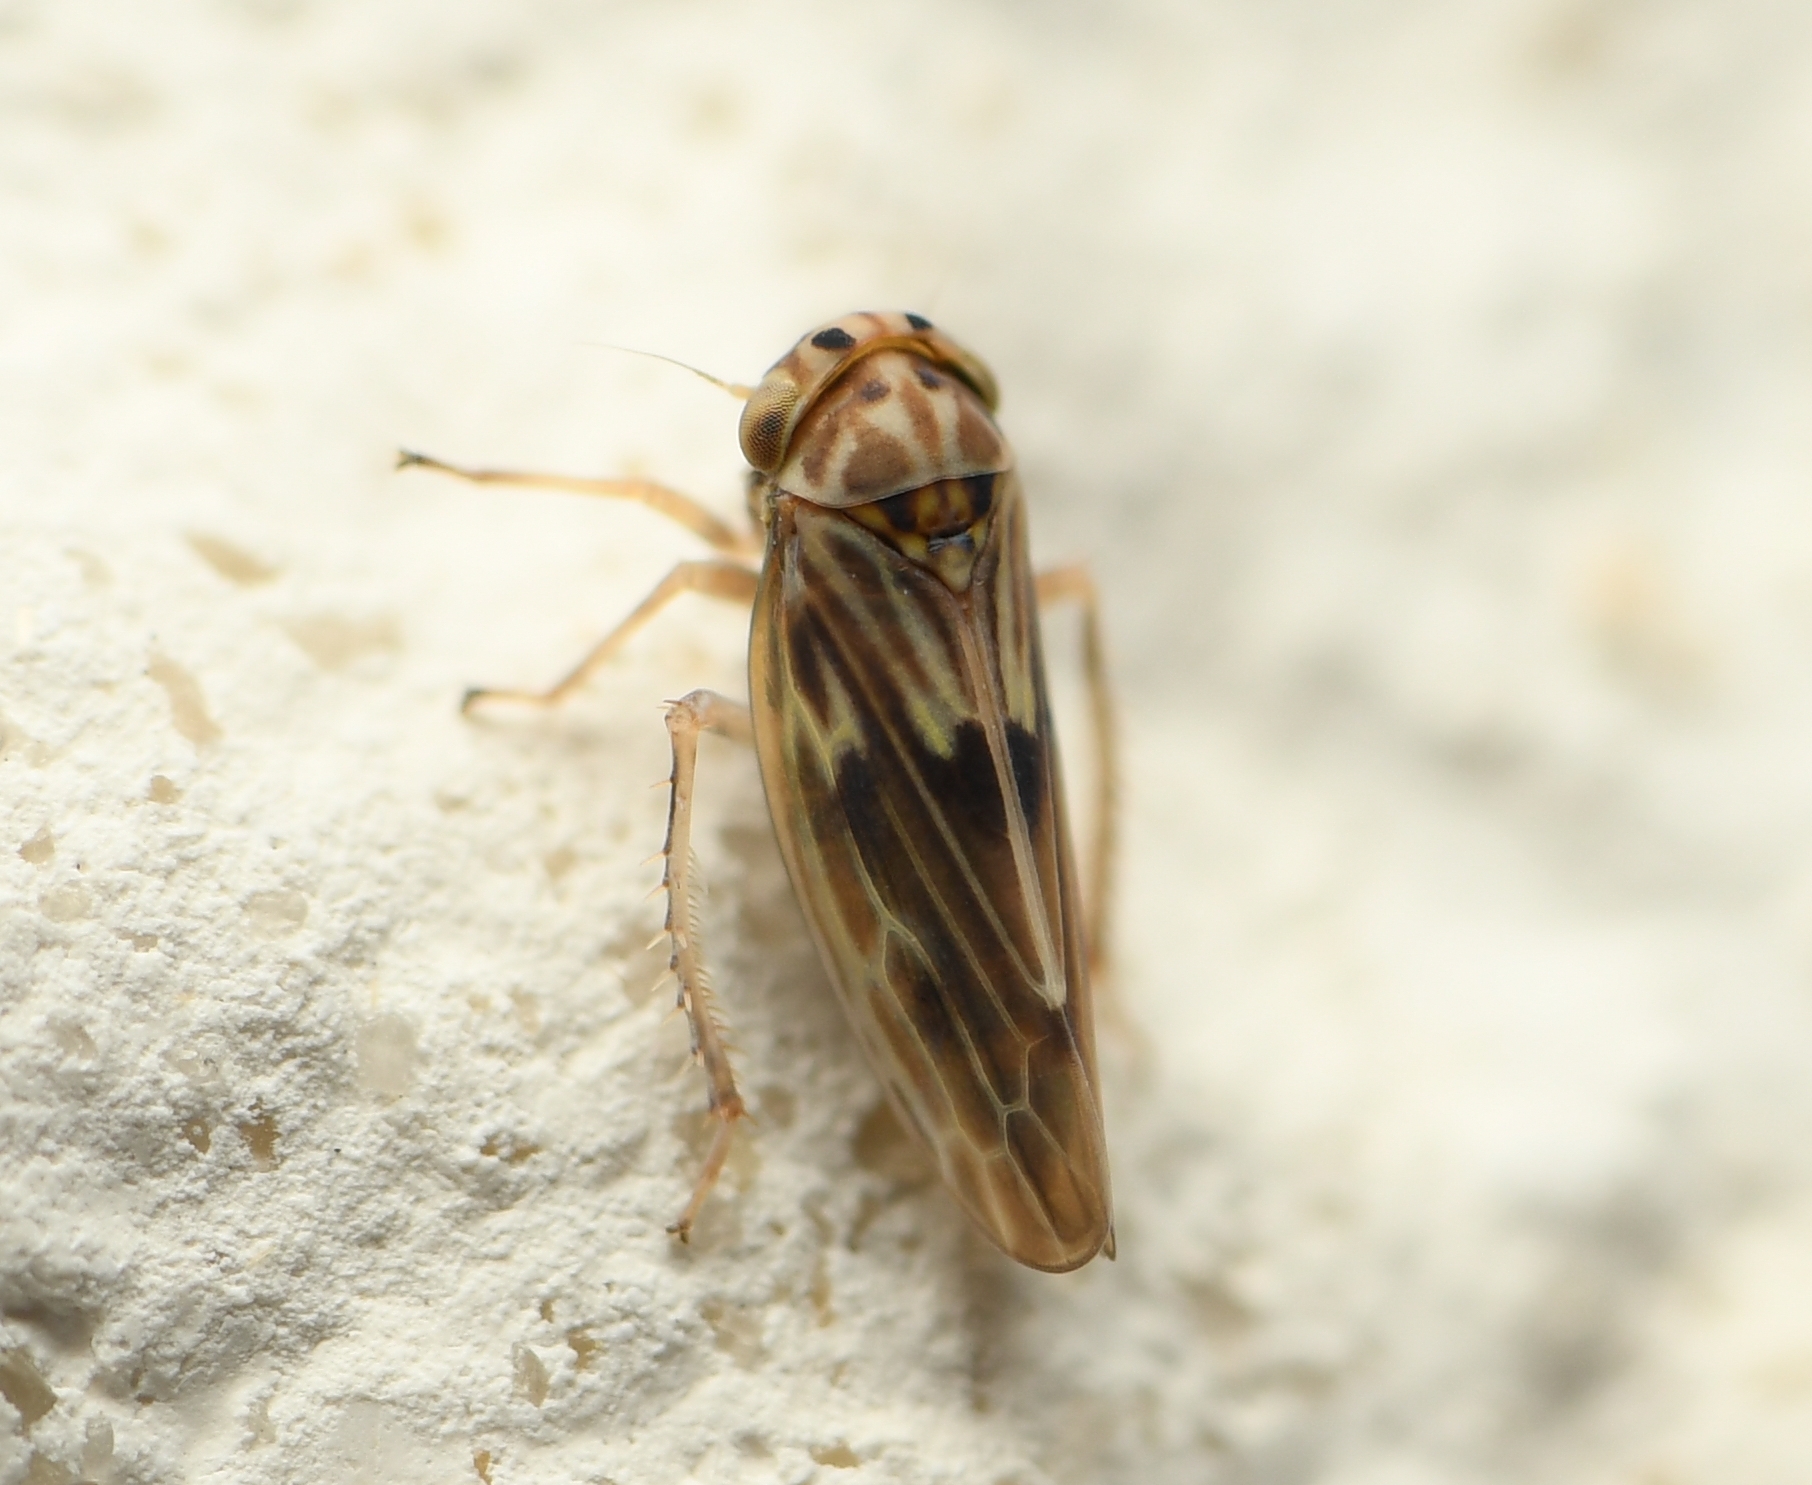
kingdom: Animalia
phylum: Arthropoda
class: Insecta
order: Hemiptera
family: Cicadellidae
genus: Agallia
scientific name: Agallia albidula
